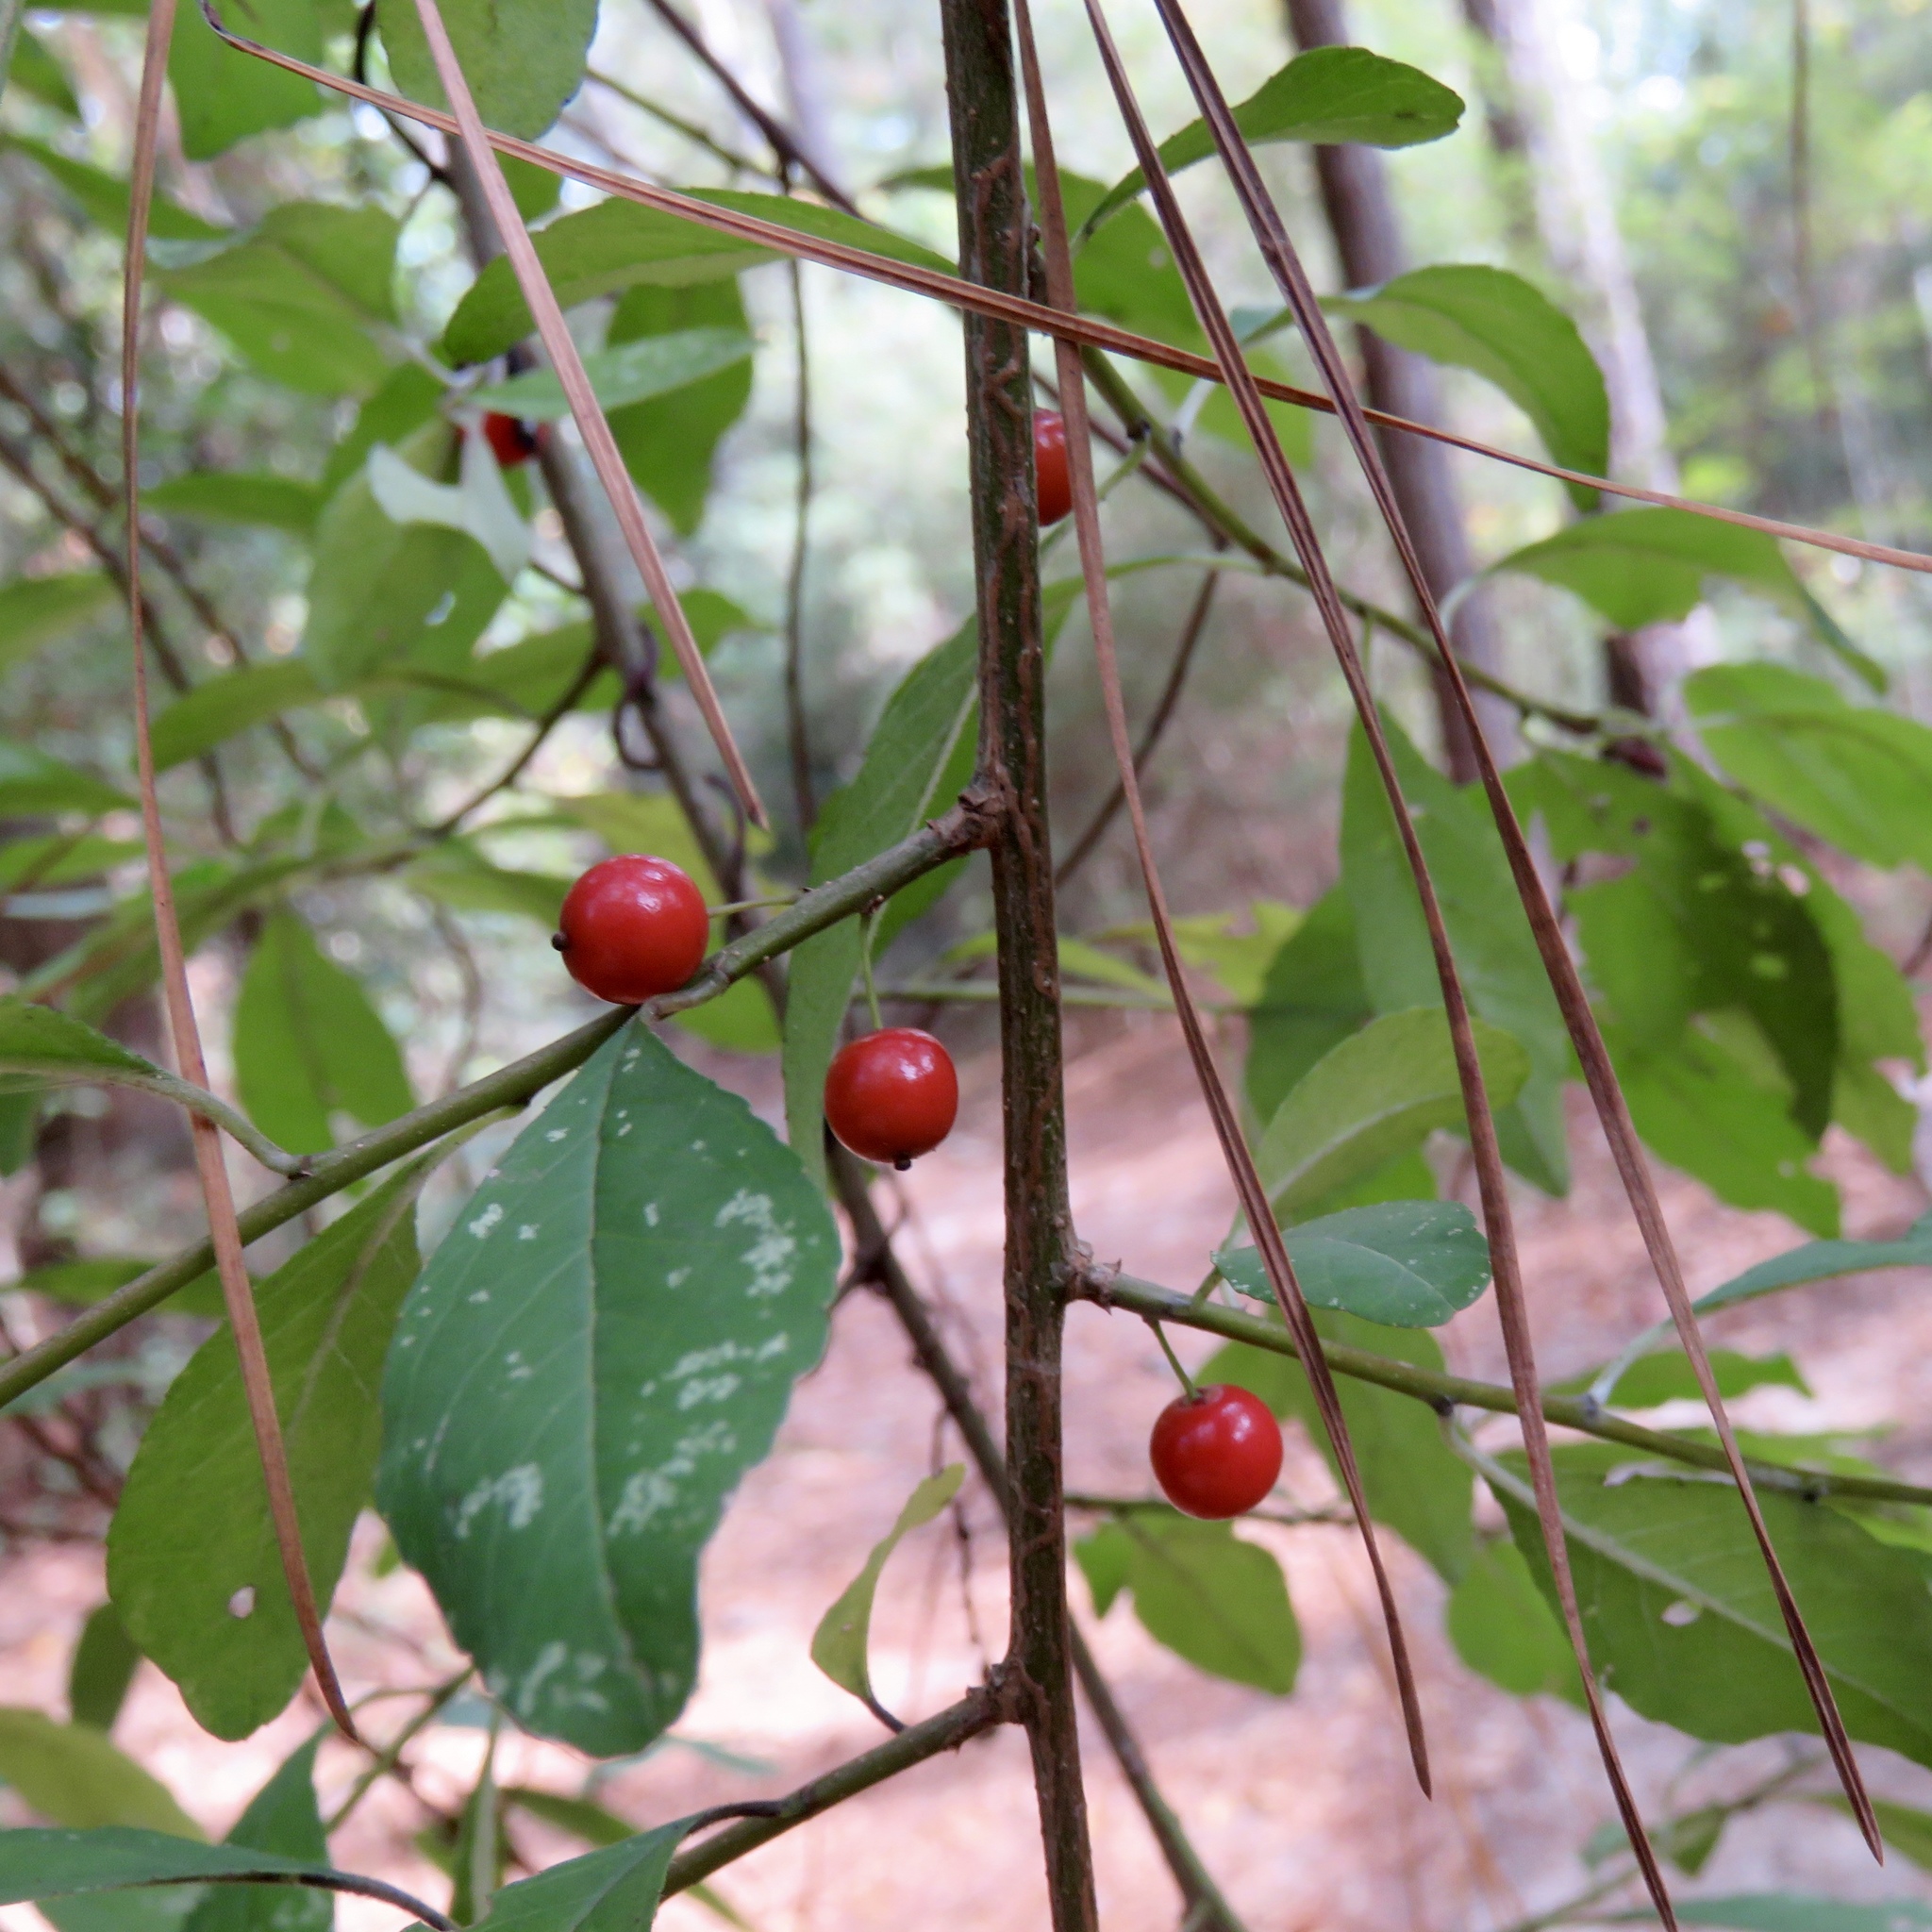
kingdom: Plantae
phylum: Tracheophyta
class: Magnoliopsida
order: Aquifoliales
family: Aquifoliaceae
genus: Ilex
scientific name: Ilex decidua
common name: Possum-haw
